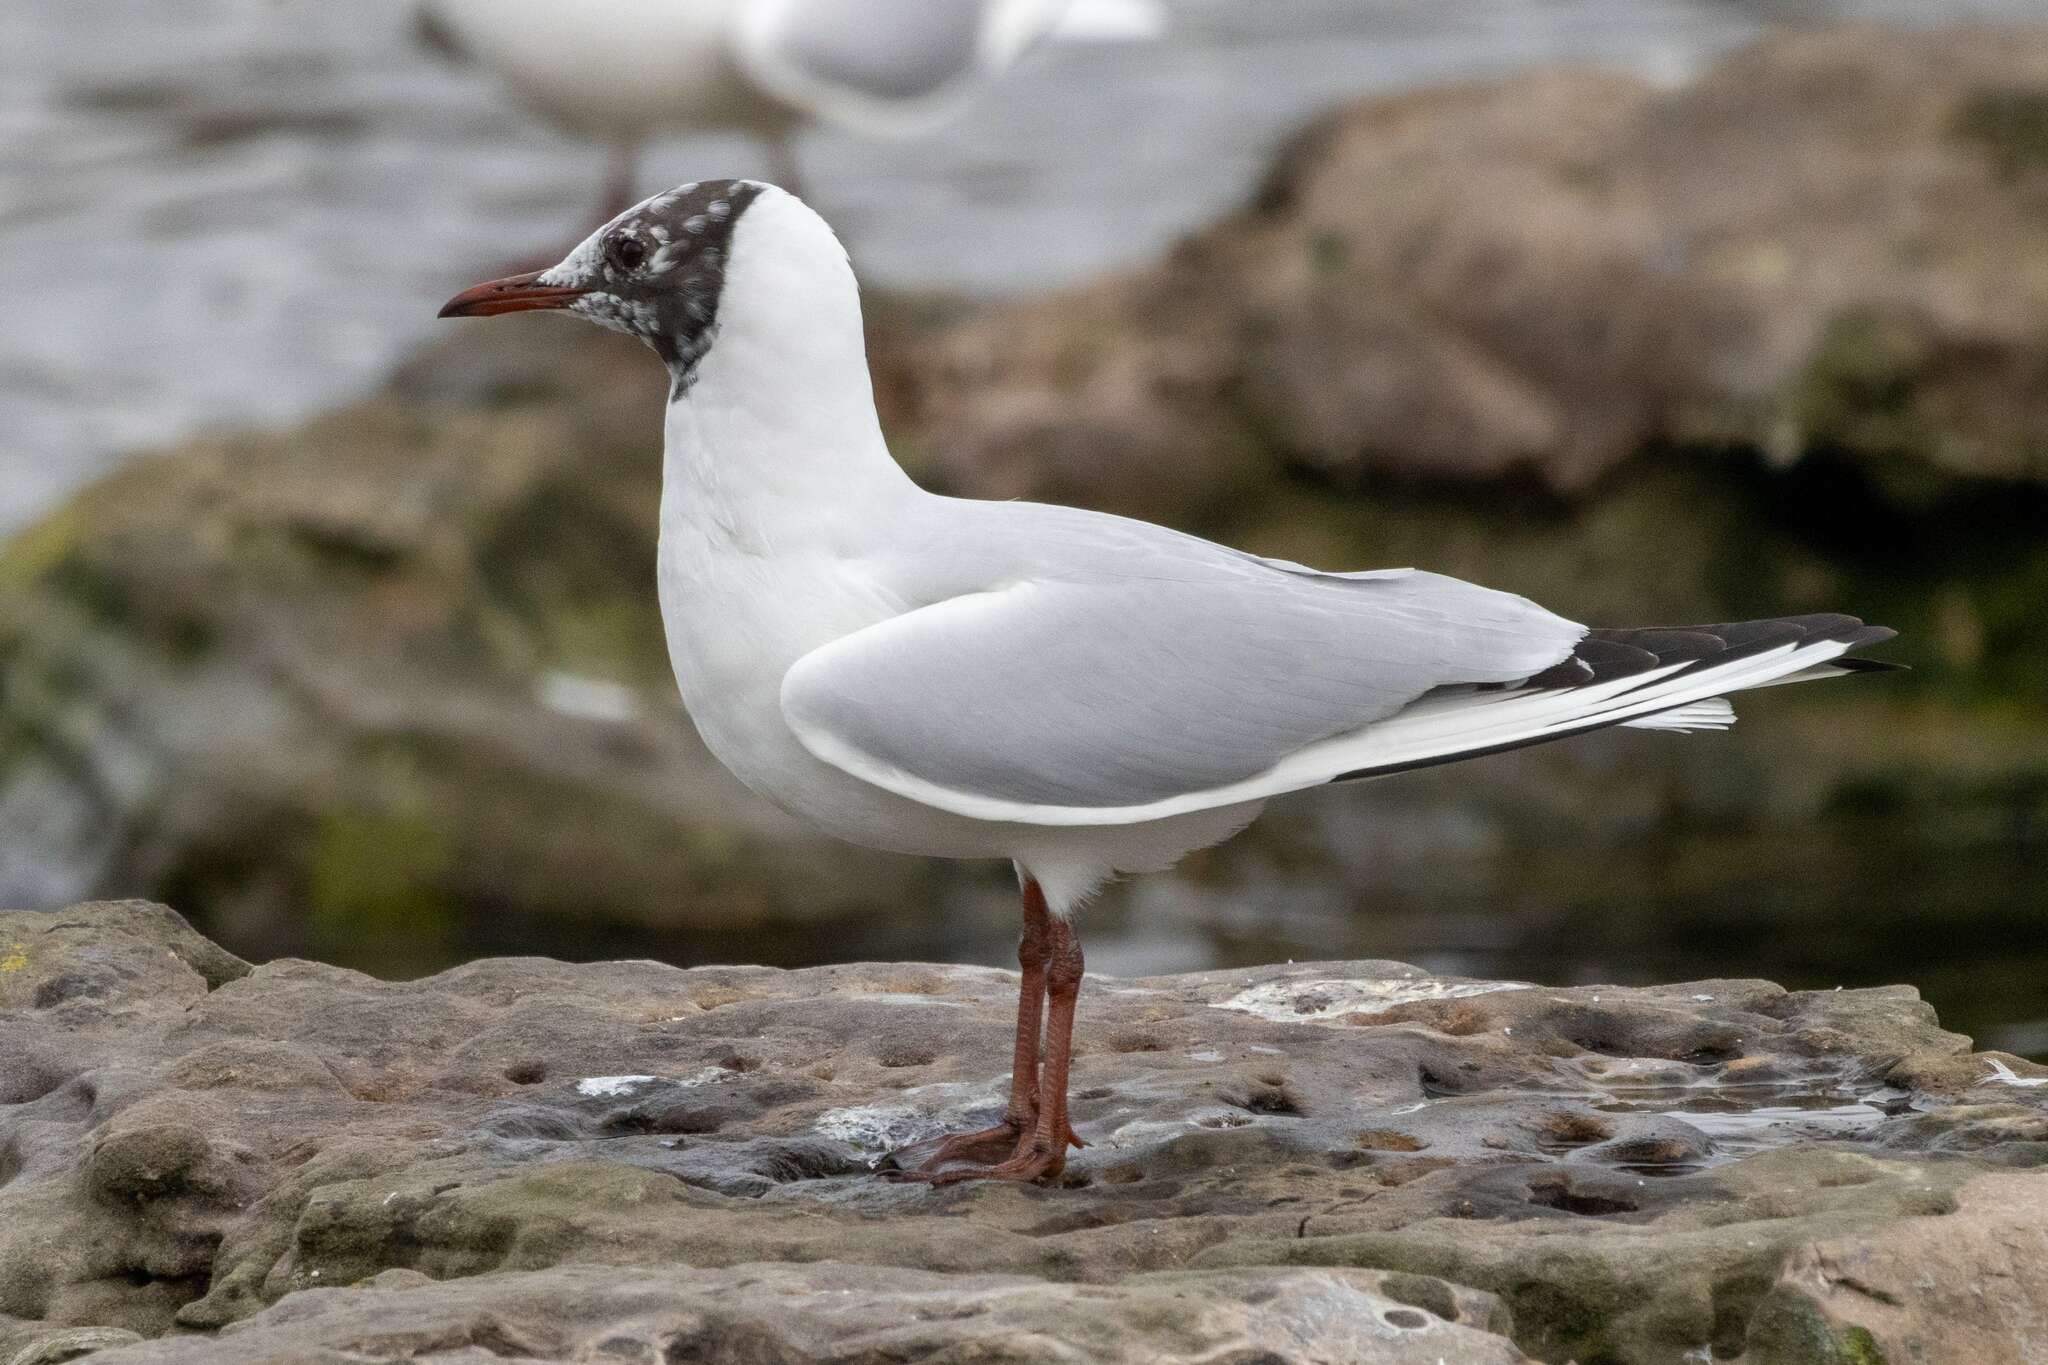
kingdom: Animalia
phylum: Chordata
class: Aves
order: Charadriiformes
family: Laridae
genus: Chroicocephalus
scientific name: Chroicocephalus ridibundus
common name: Black-headed gull
